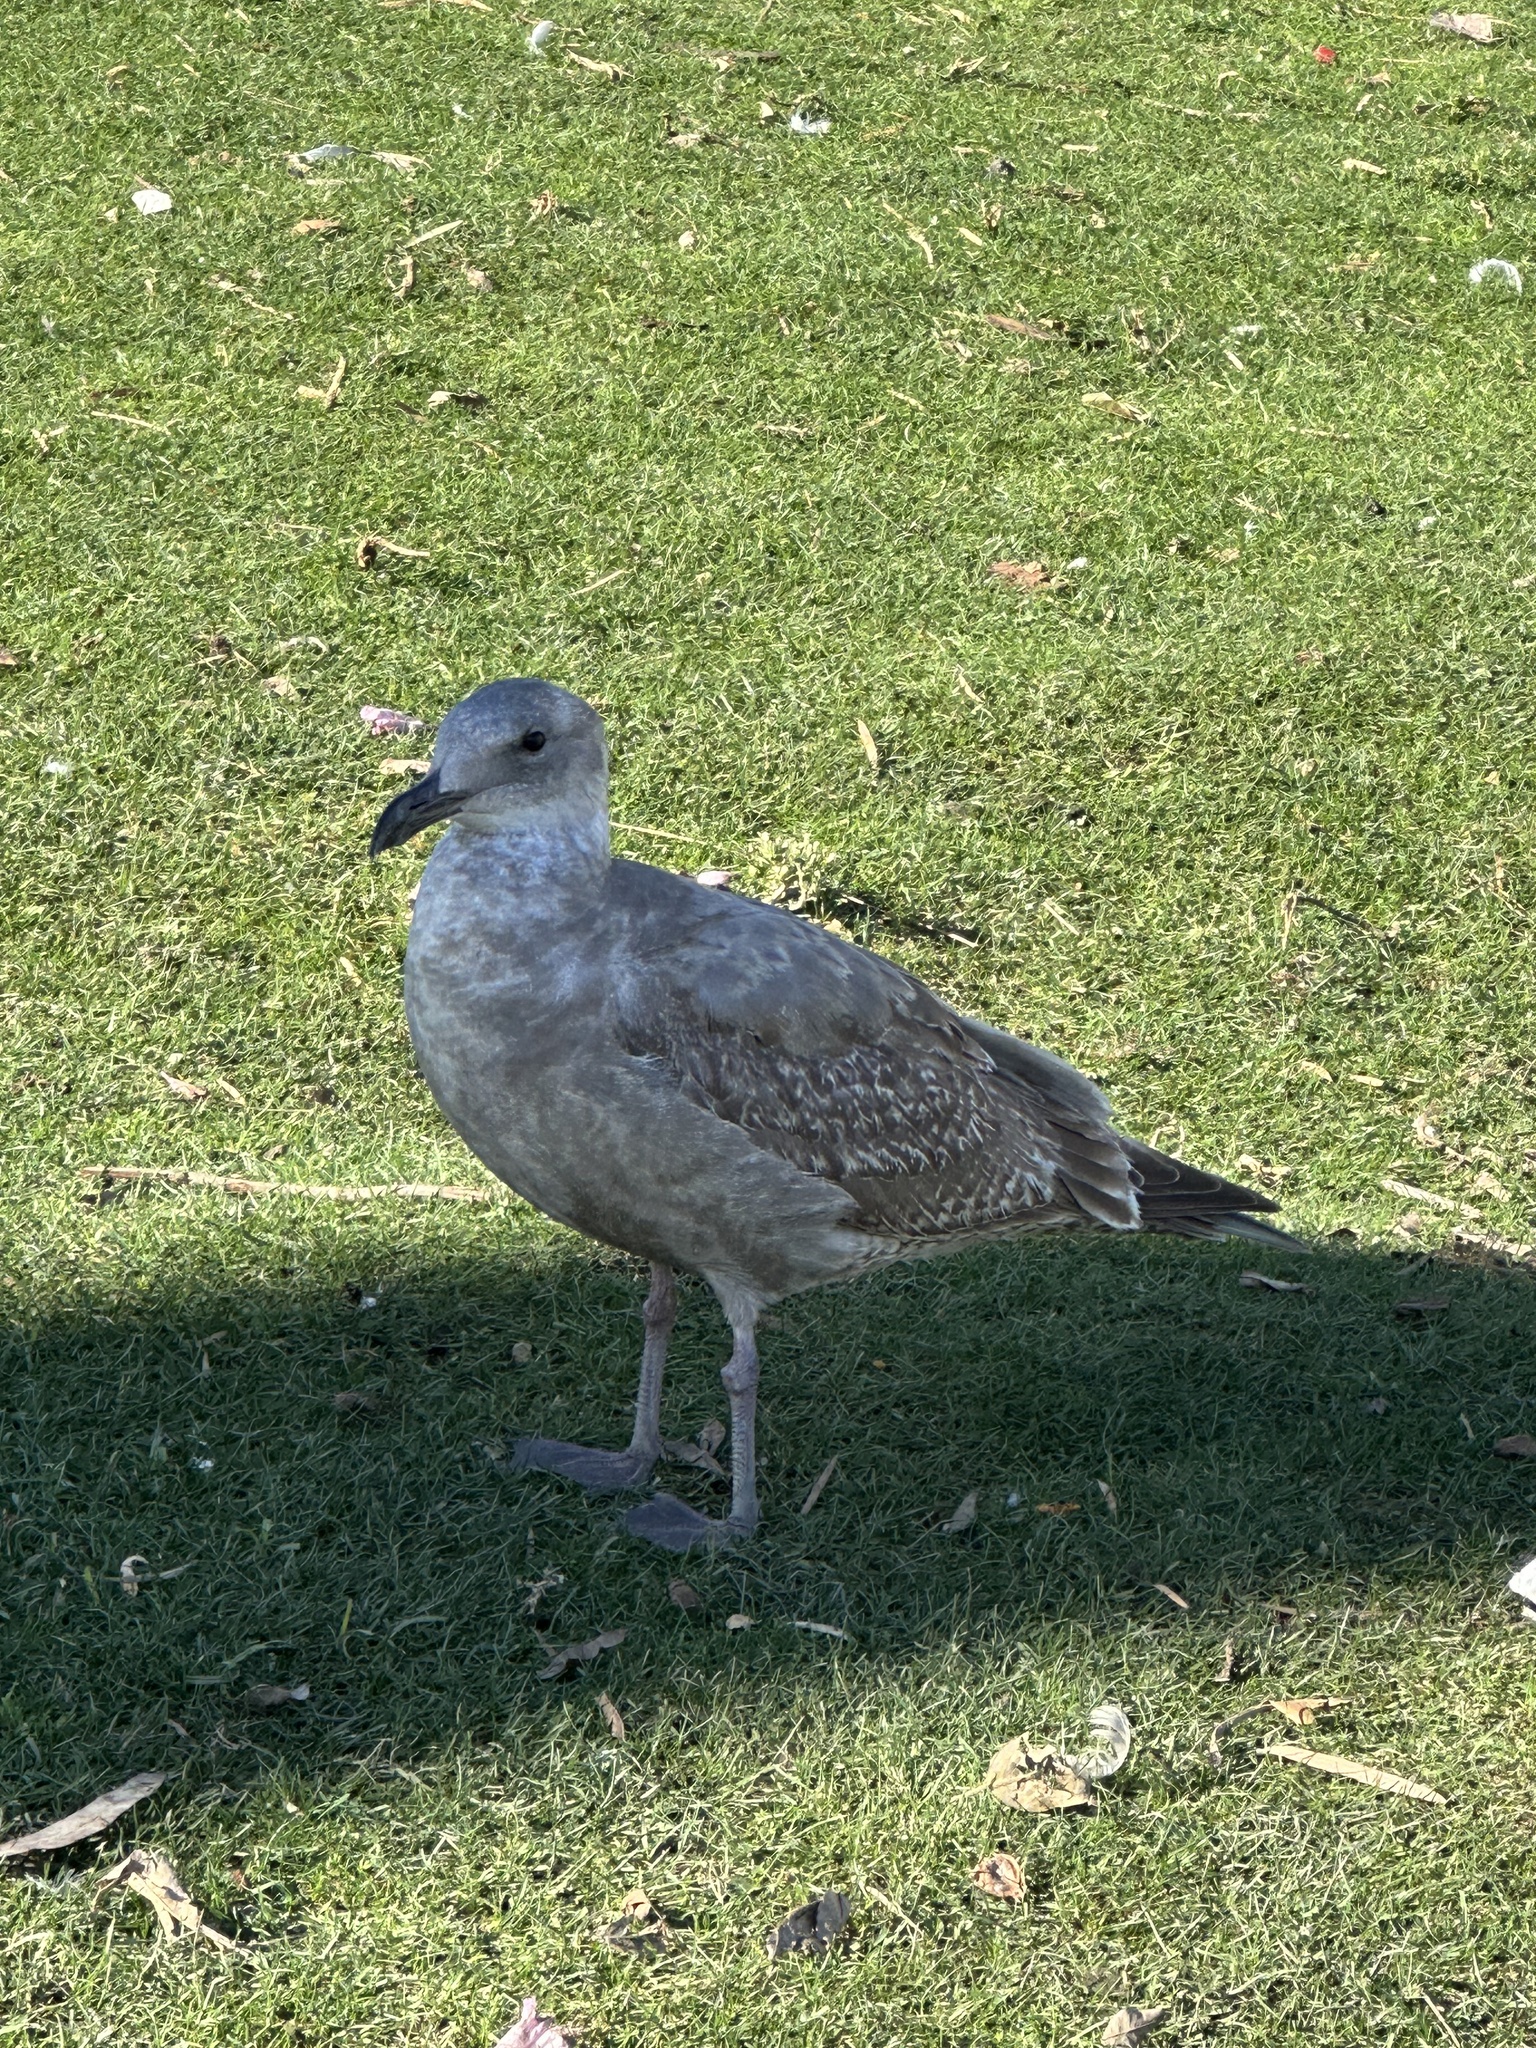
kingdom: Animalia
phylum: Chordata
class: Aves
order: Charadriiformes
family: Laridae
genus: Larus
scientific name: Larus occidentalis
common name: Western gull
